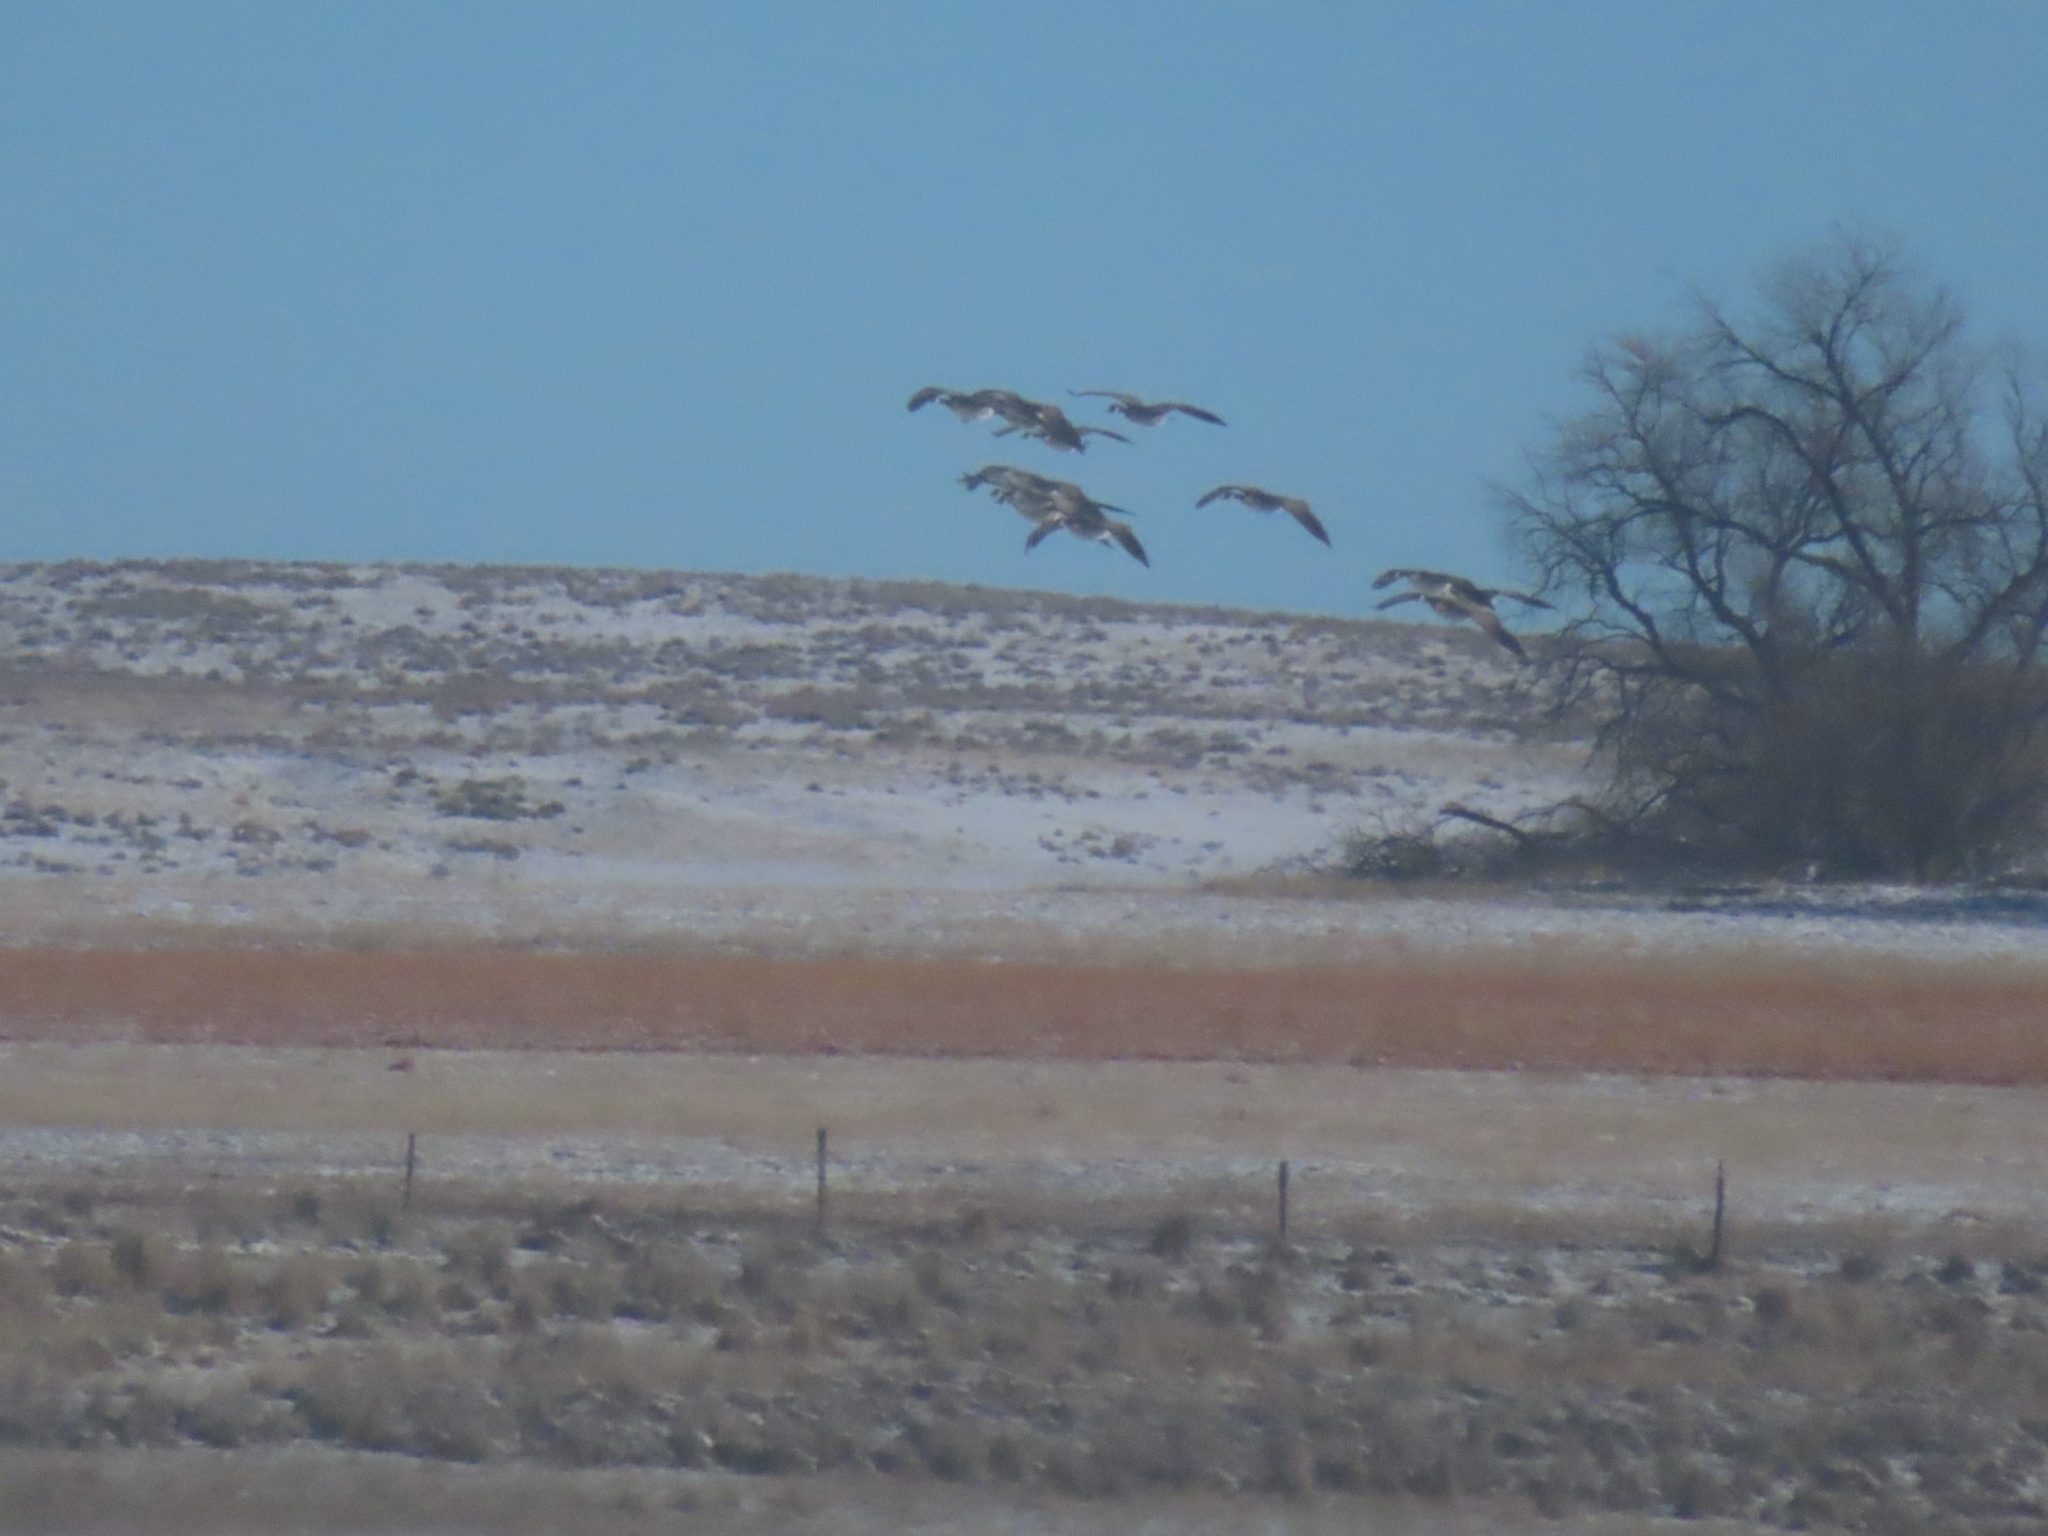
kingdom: Animalia
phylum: Chordata
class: Aves
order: Anseriformes
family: Anatidae
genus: Branta
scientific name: Branta canadensis
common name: Canada goose
